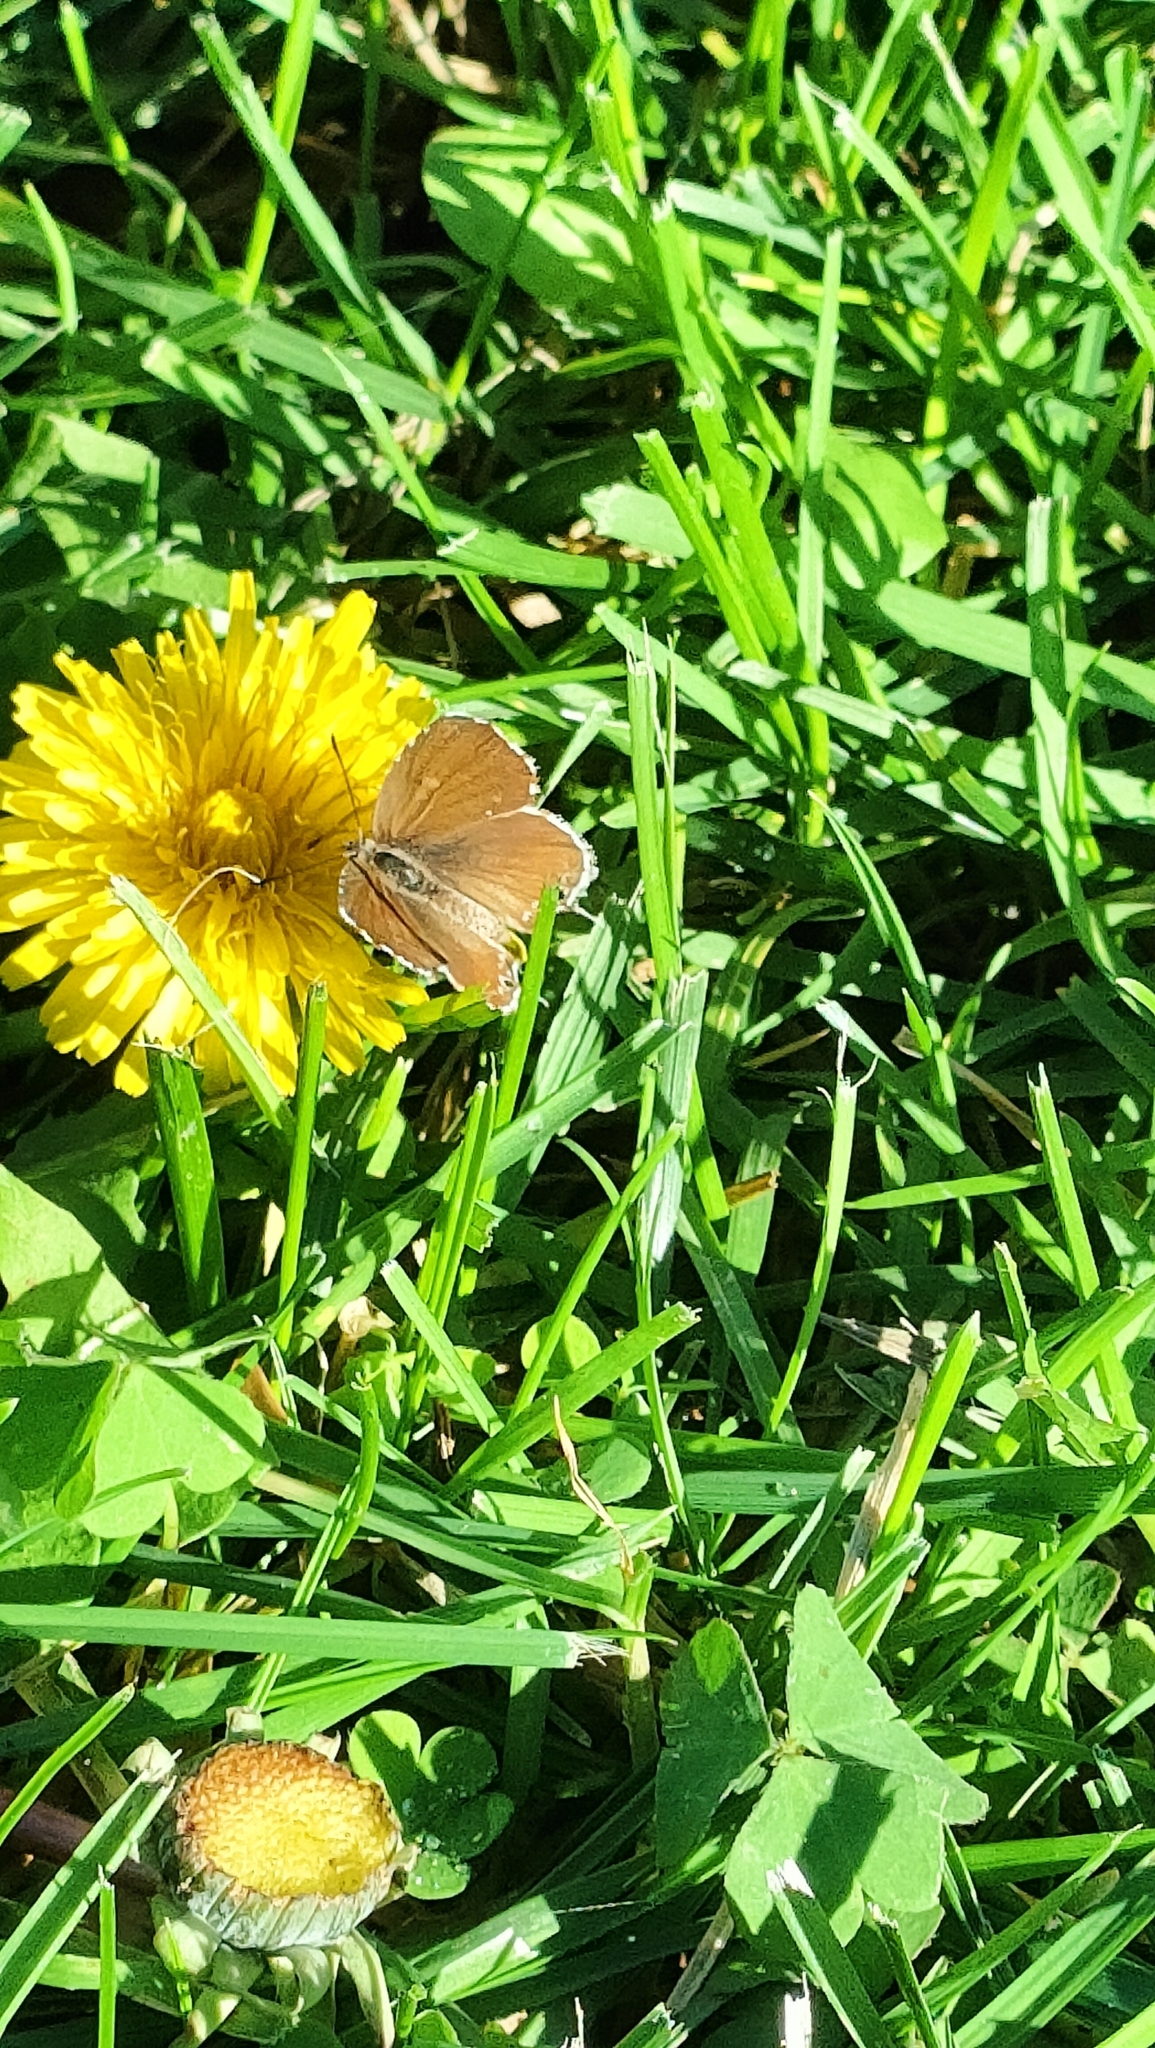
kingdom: Animalia
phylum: Arthropoda
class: Insecta
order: Lepidoptera
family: Lycaenidae
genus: Cacyreus
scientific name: Cacyreus marshalli
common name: Geranium bronze
